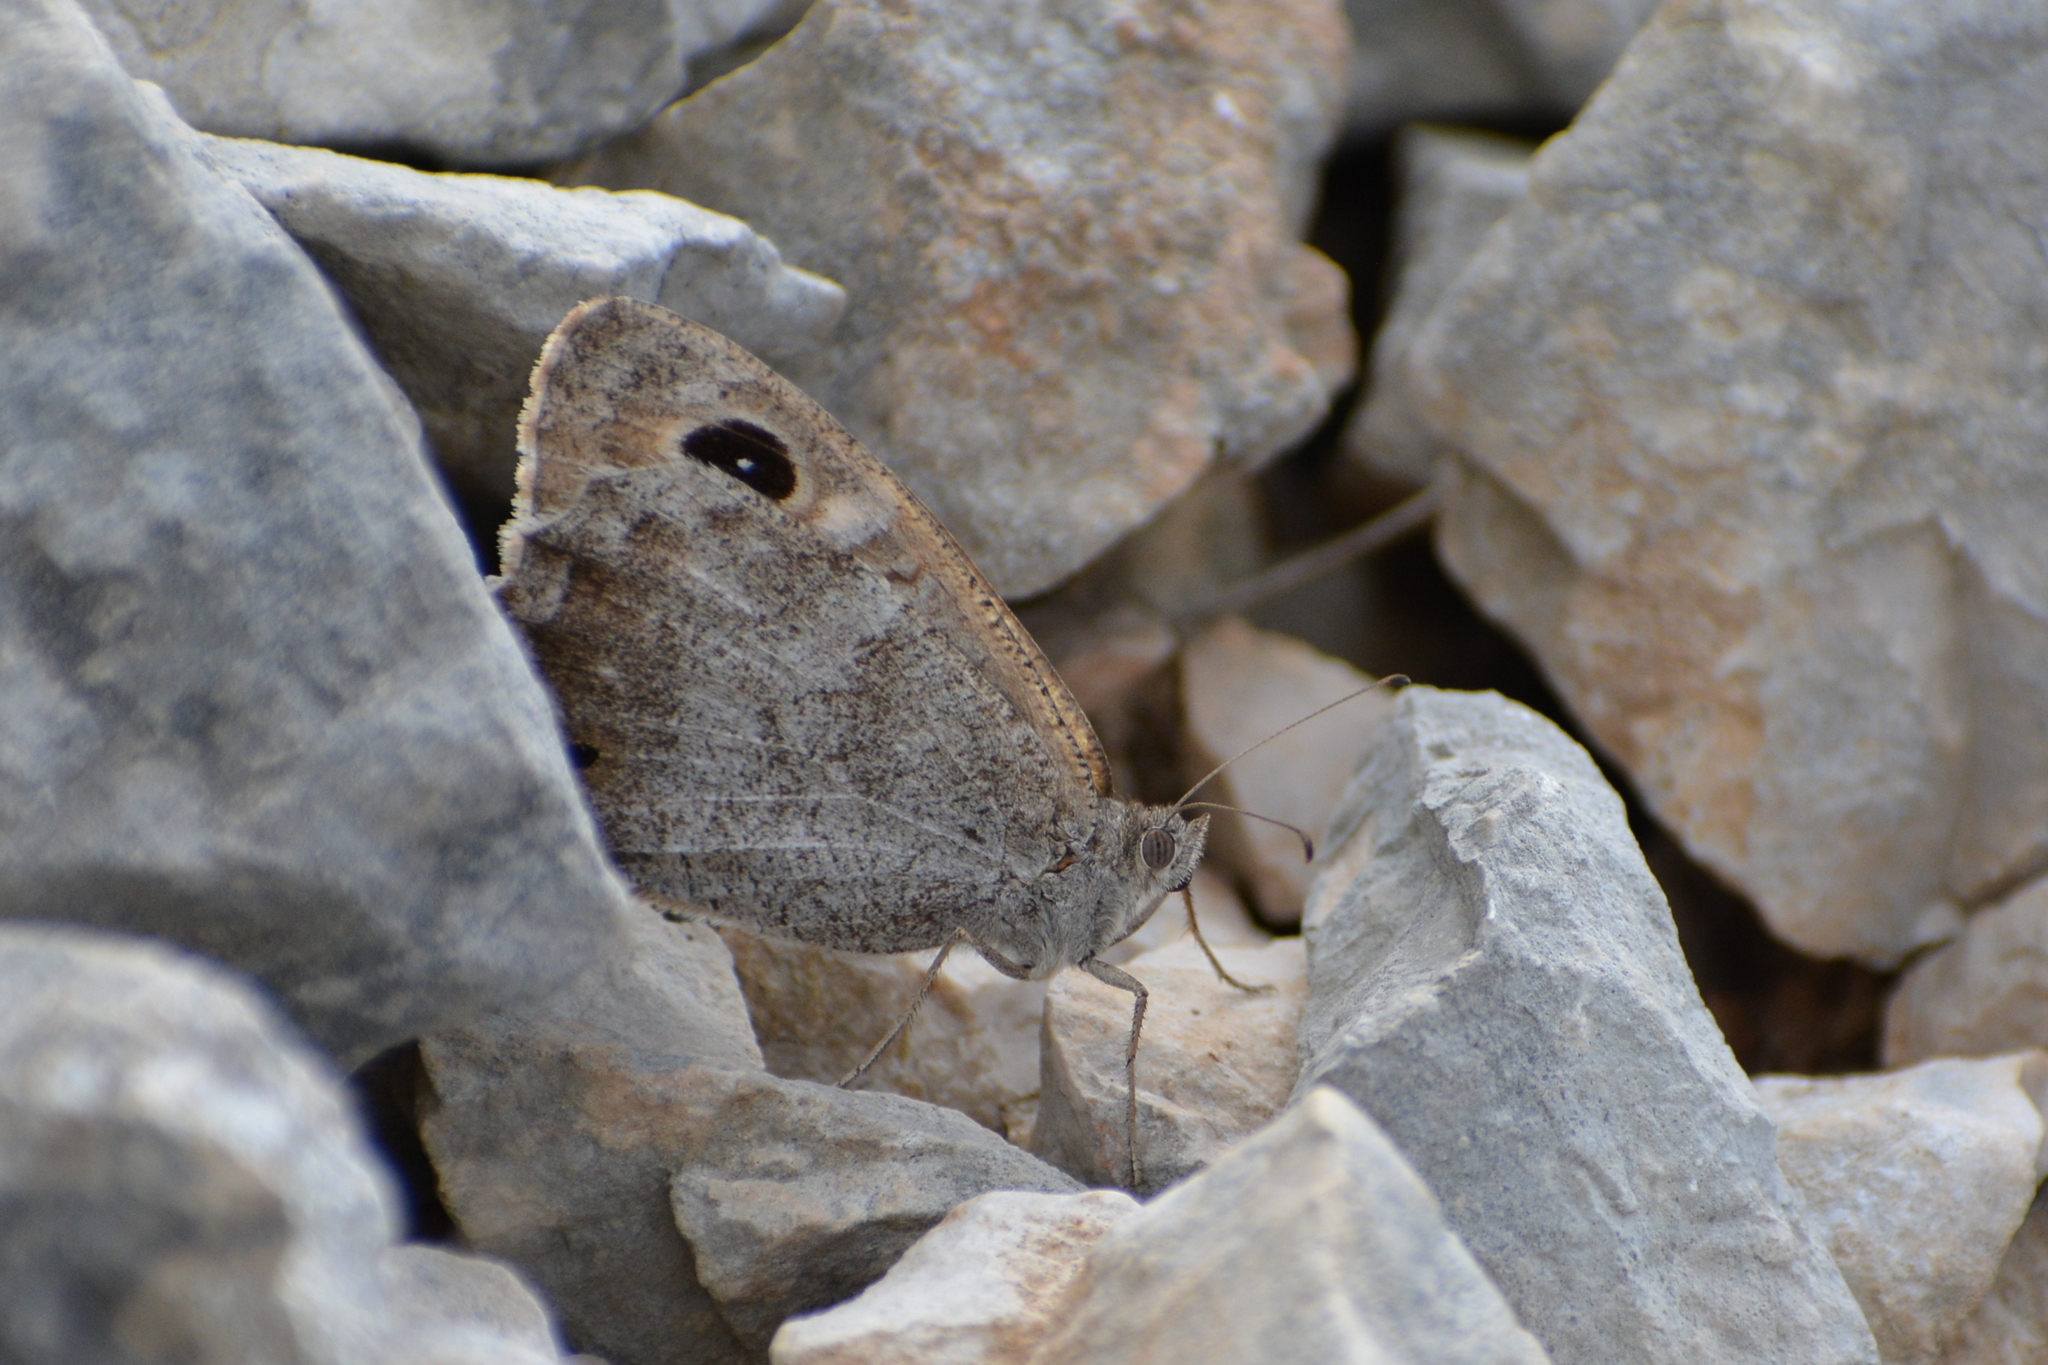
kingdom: Animalia
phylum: Arthropoda
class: Insecta
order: Lepidoptera
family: Nymphalidae
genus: Hipparchia
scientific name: Hipparchia statilinus
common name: Tree grayling
